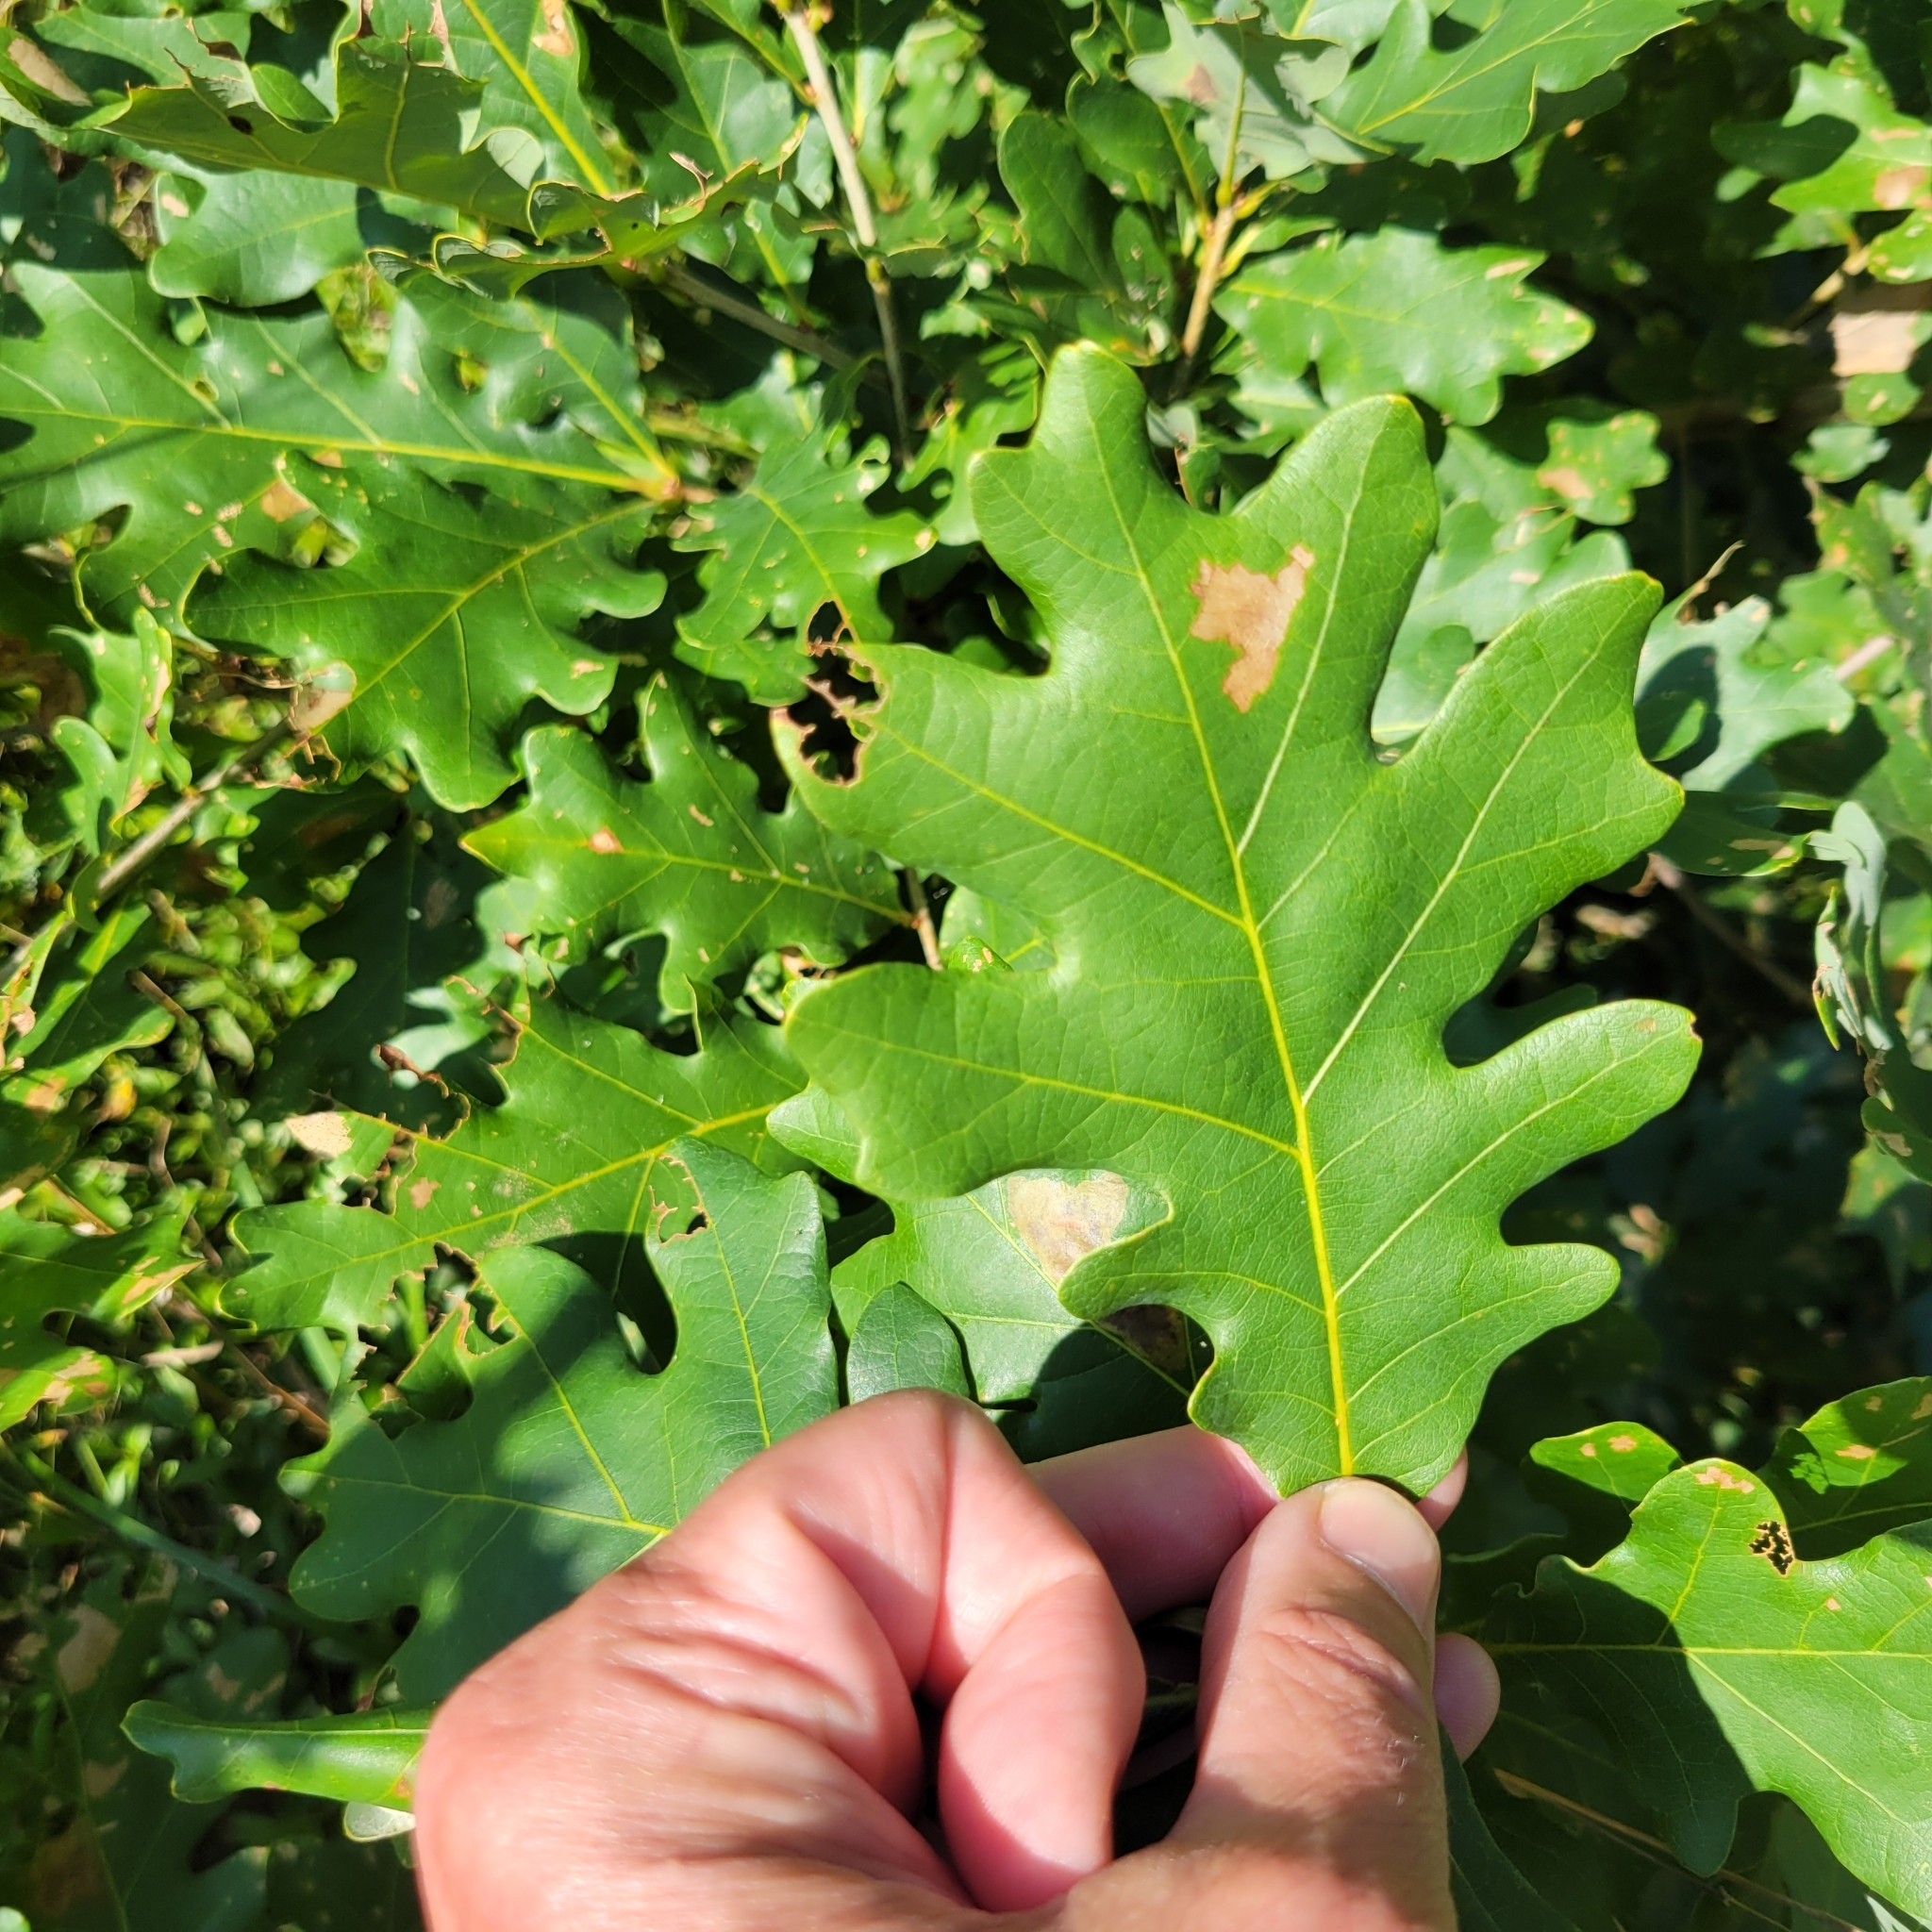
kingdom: Plantae
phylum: Tracheophyta
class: Magnoliopsida
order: Fagales
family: Fagaceae
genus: Quercus
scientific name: Quercus alba
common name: White oak
